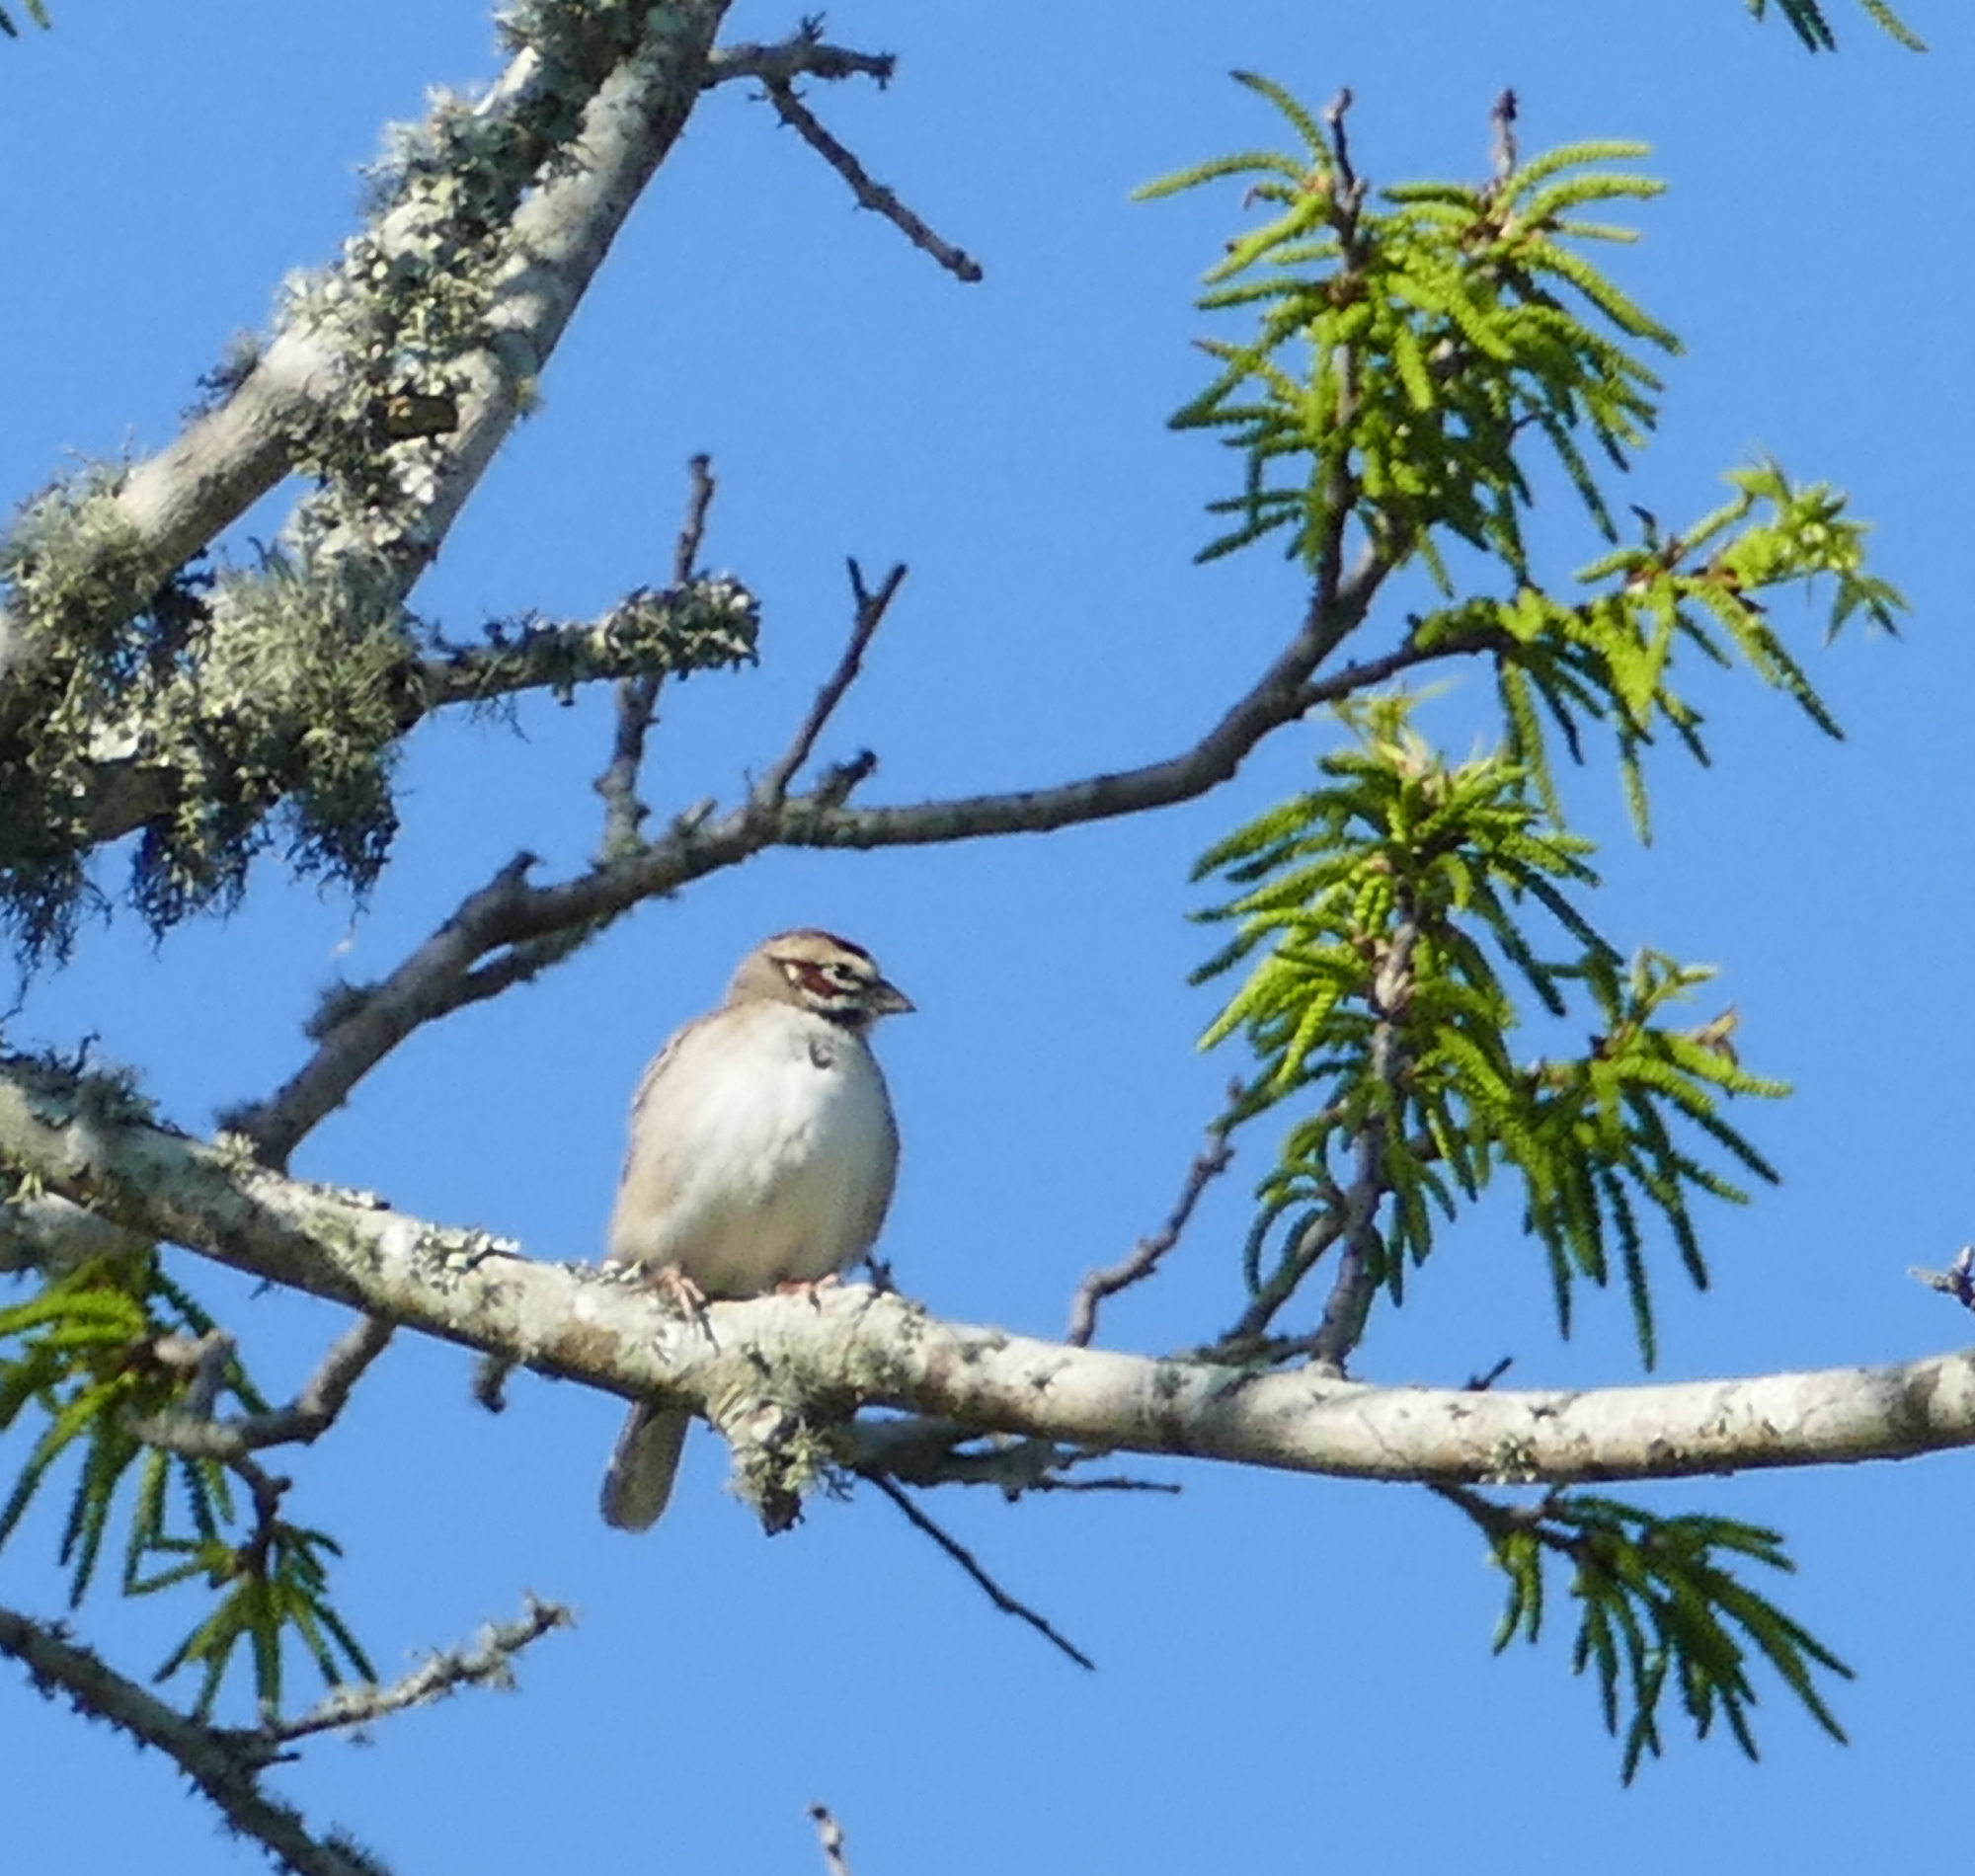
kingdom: Animalia
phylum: Chordata
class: Aves
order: Passeriformes
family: Passerellidae
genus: Chondestes
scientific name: Chondestes grammacus
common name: Lark sparrow
